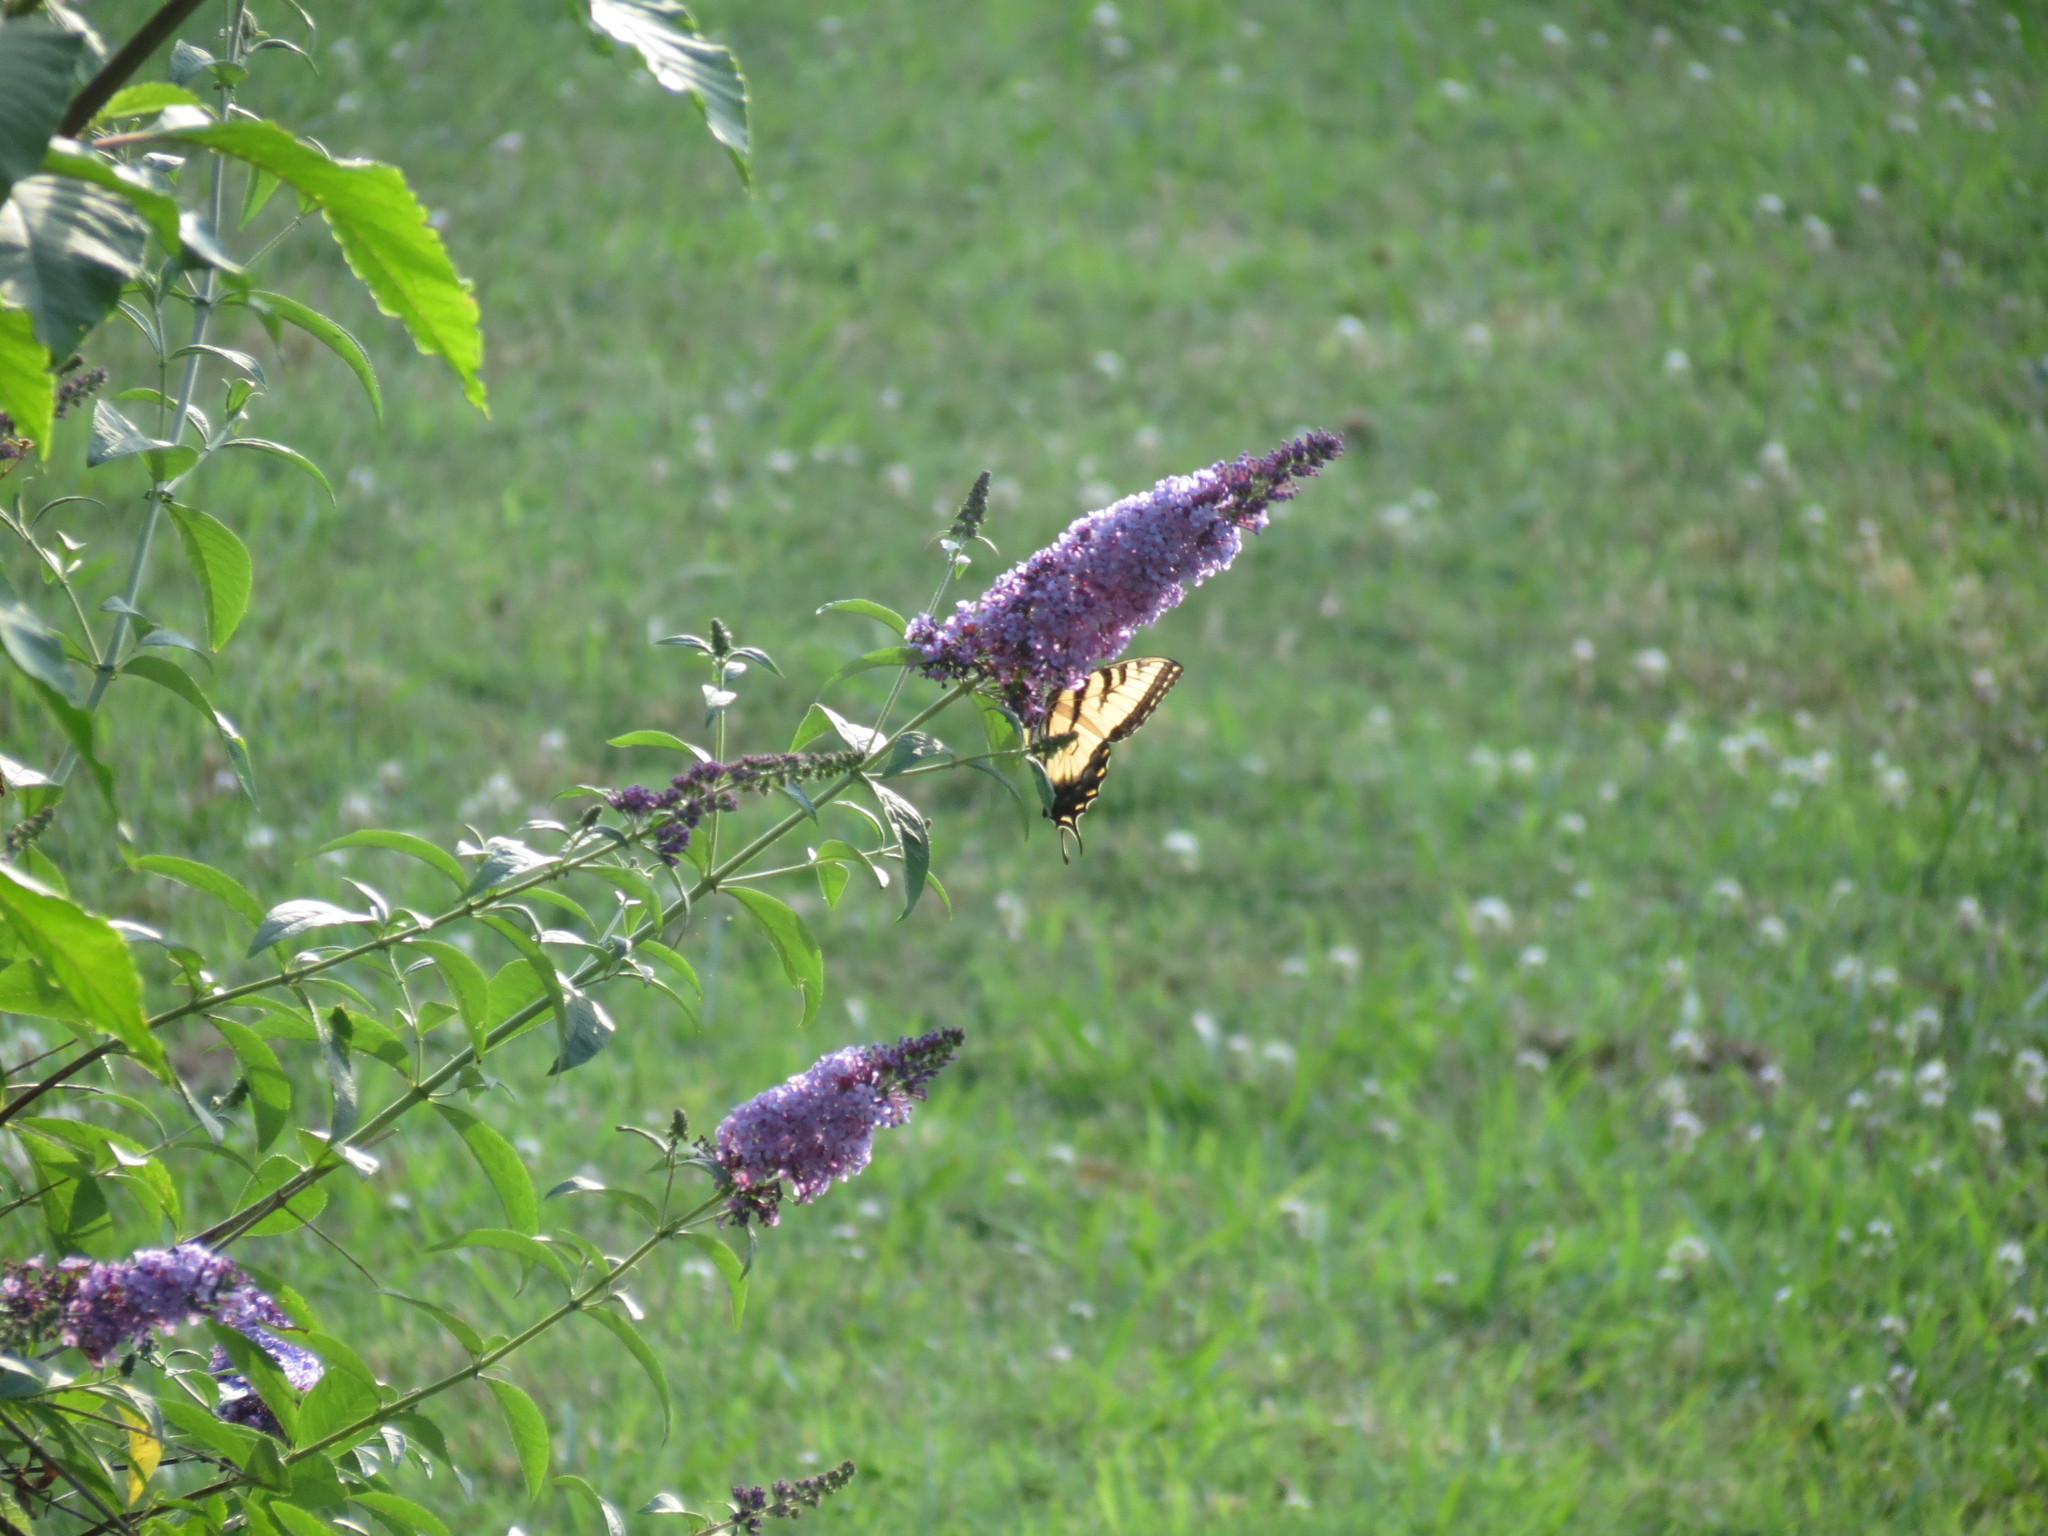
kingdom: Animalia
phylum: Arthropoda
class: Insecta
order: Lepidoptera
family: Papilionidae
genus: Papilio
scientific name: Papilio glaucus
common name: Tiger swallowtail
